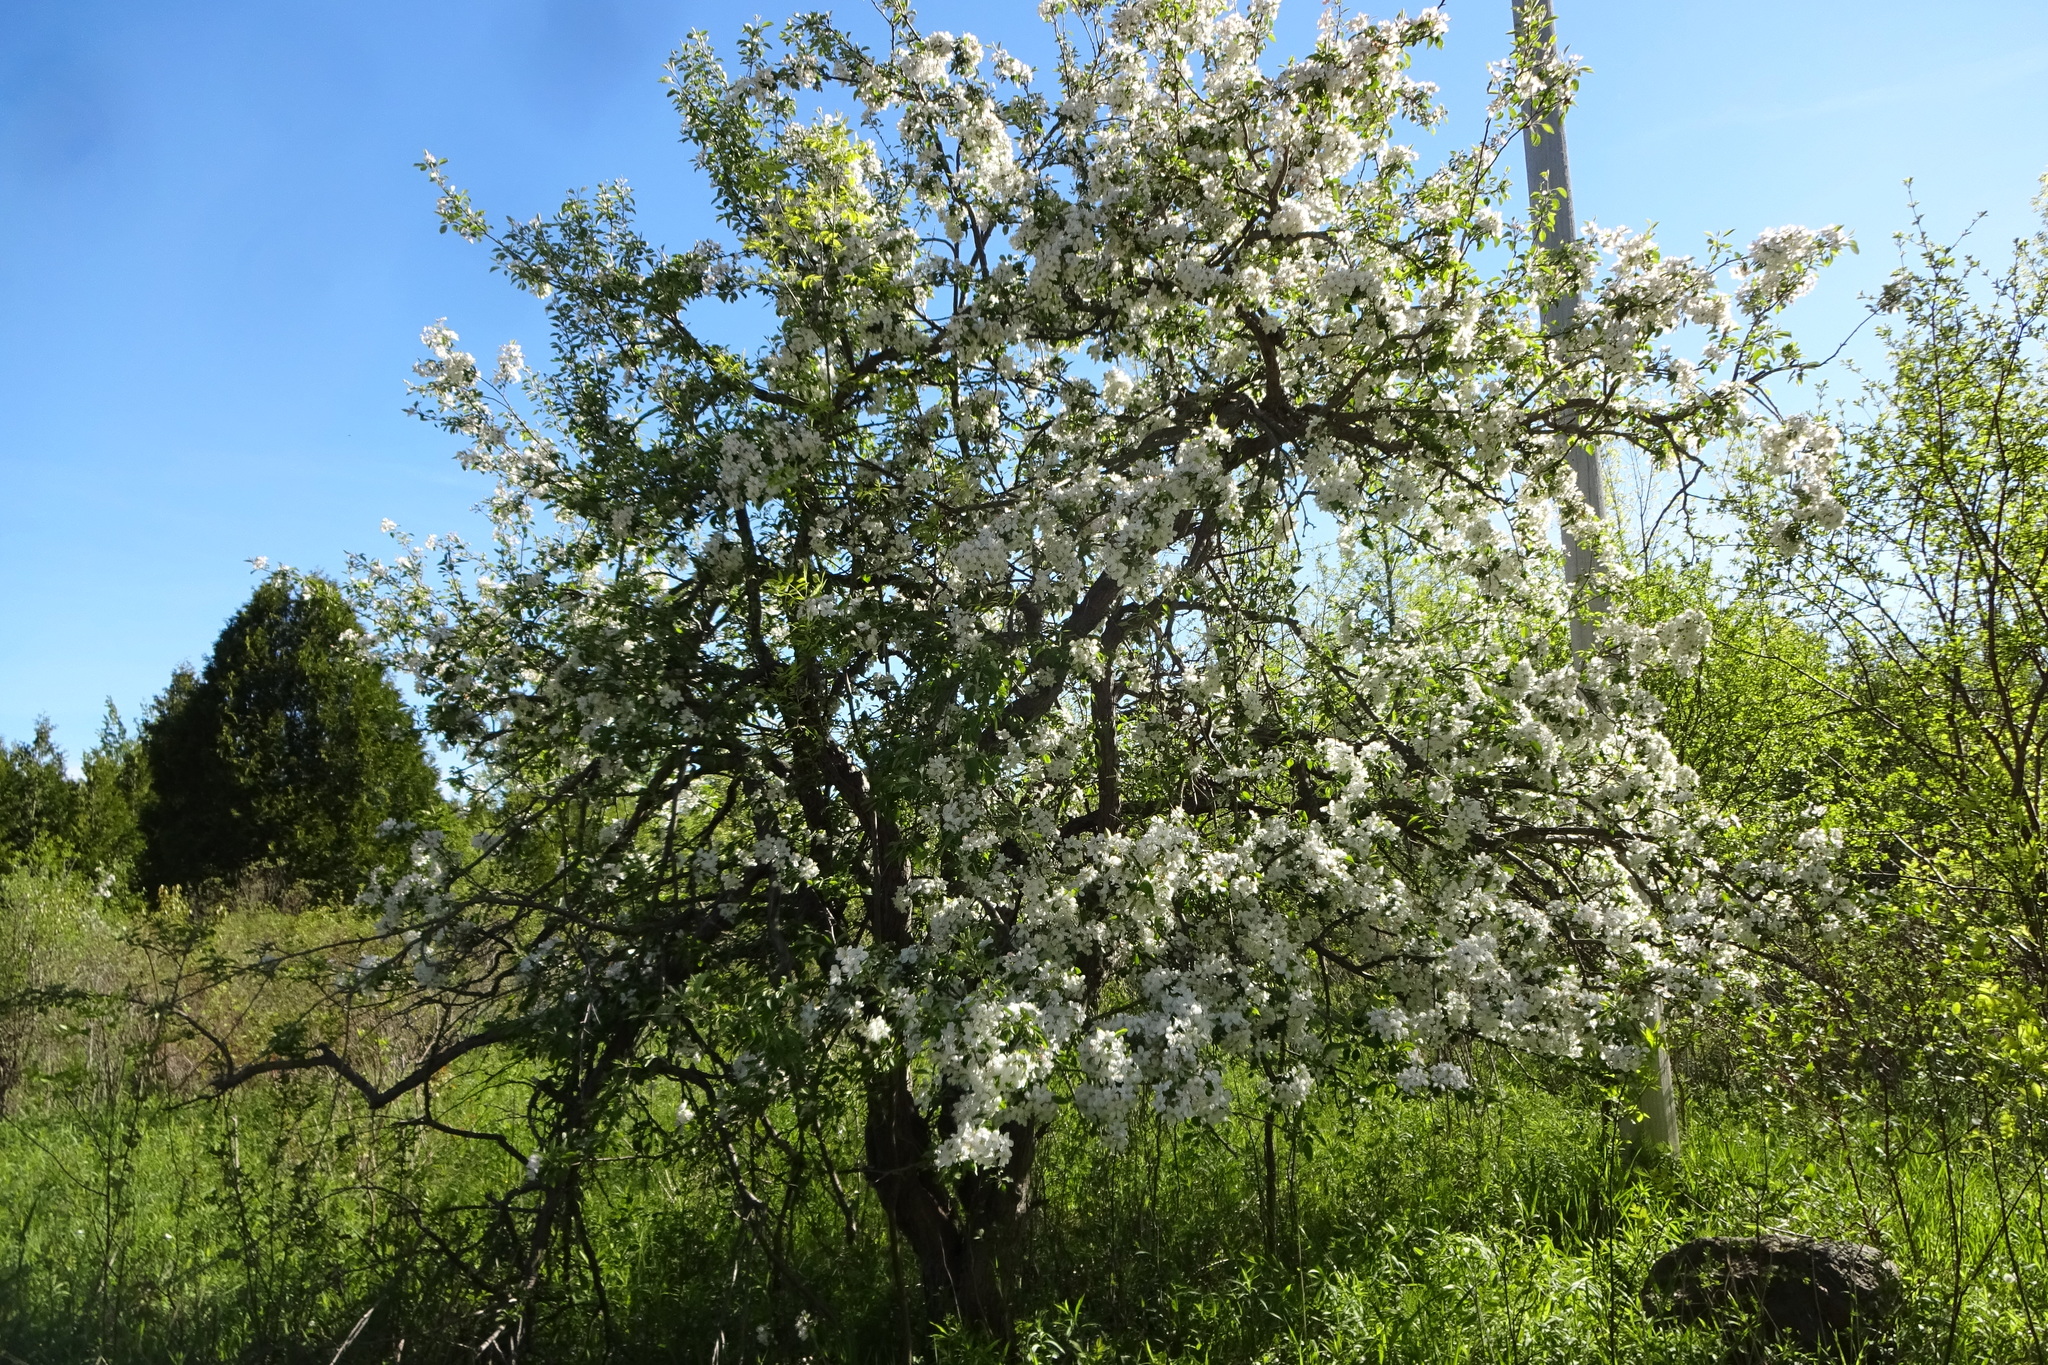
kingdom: Plantae
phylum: Tracheophyta
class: Magnoliopsida
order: Rosales
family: Rosaceae
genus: Malus
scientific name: Malus domestica
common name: Apple
